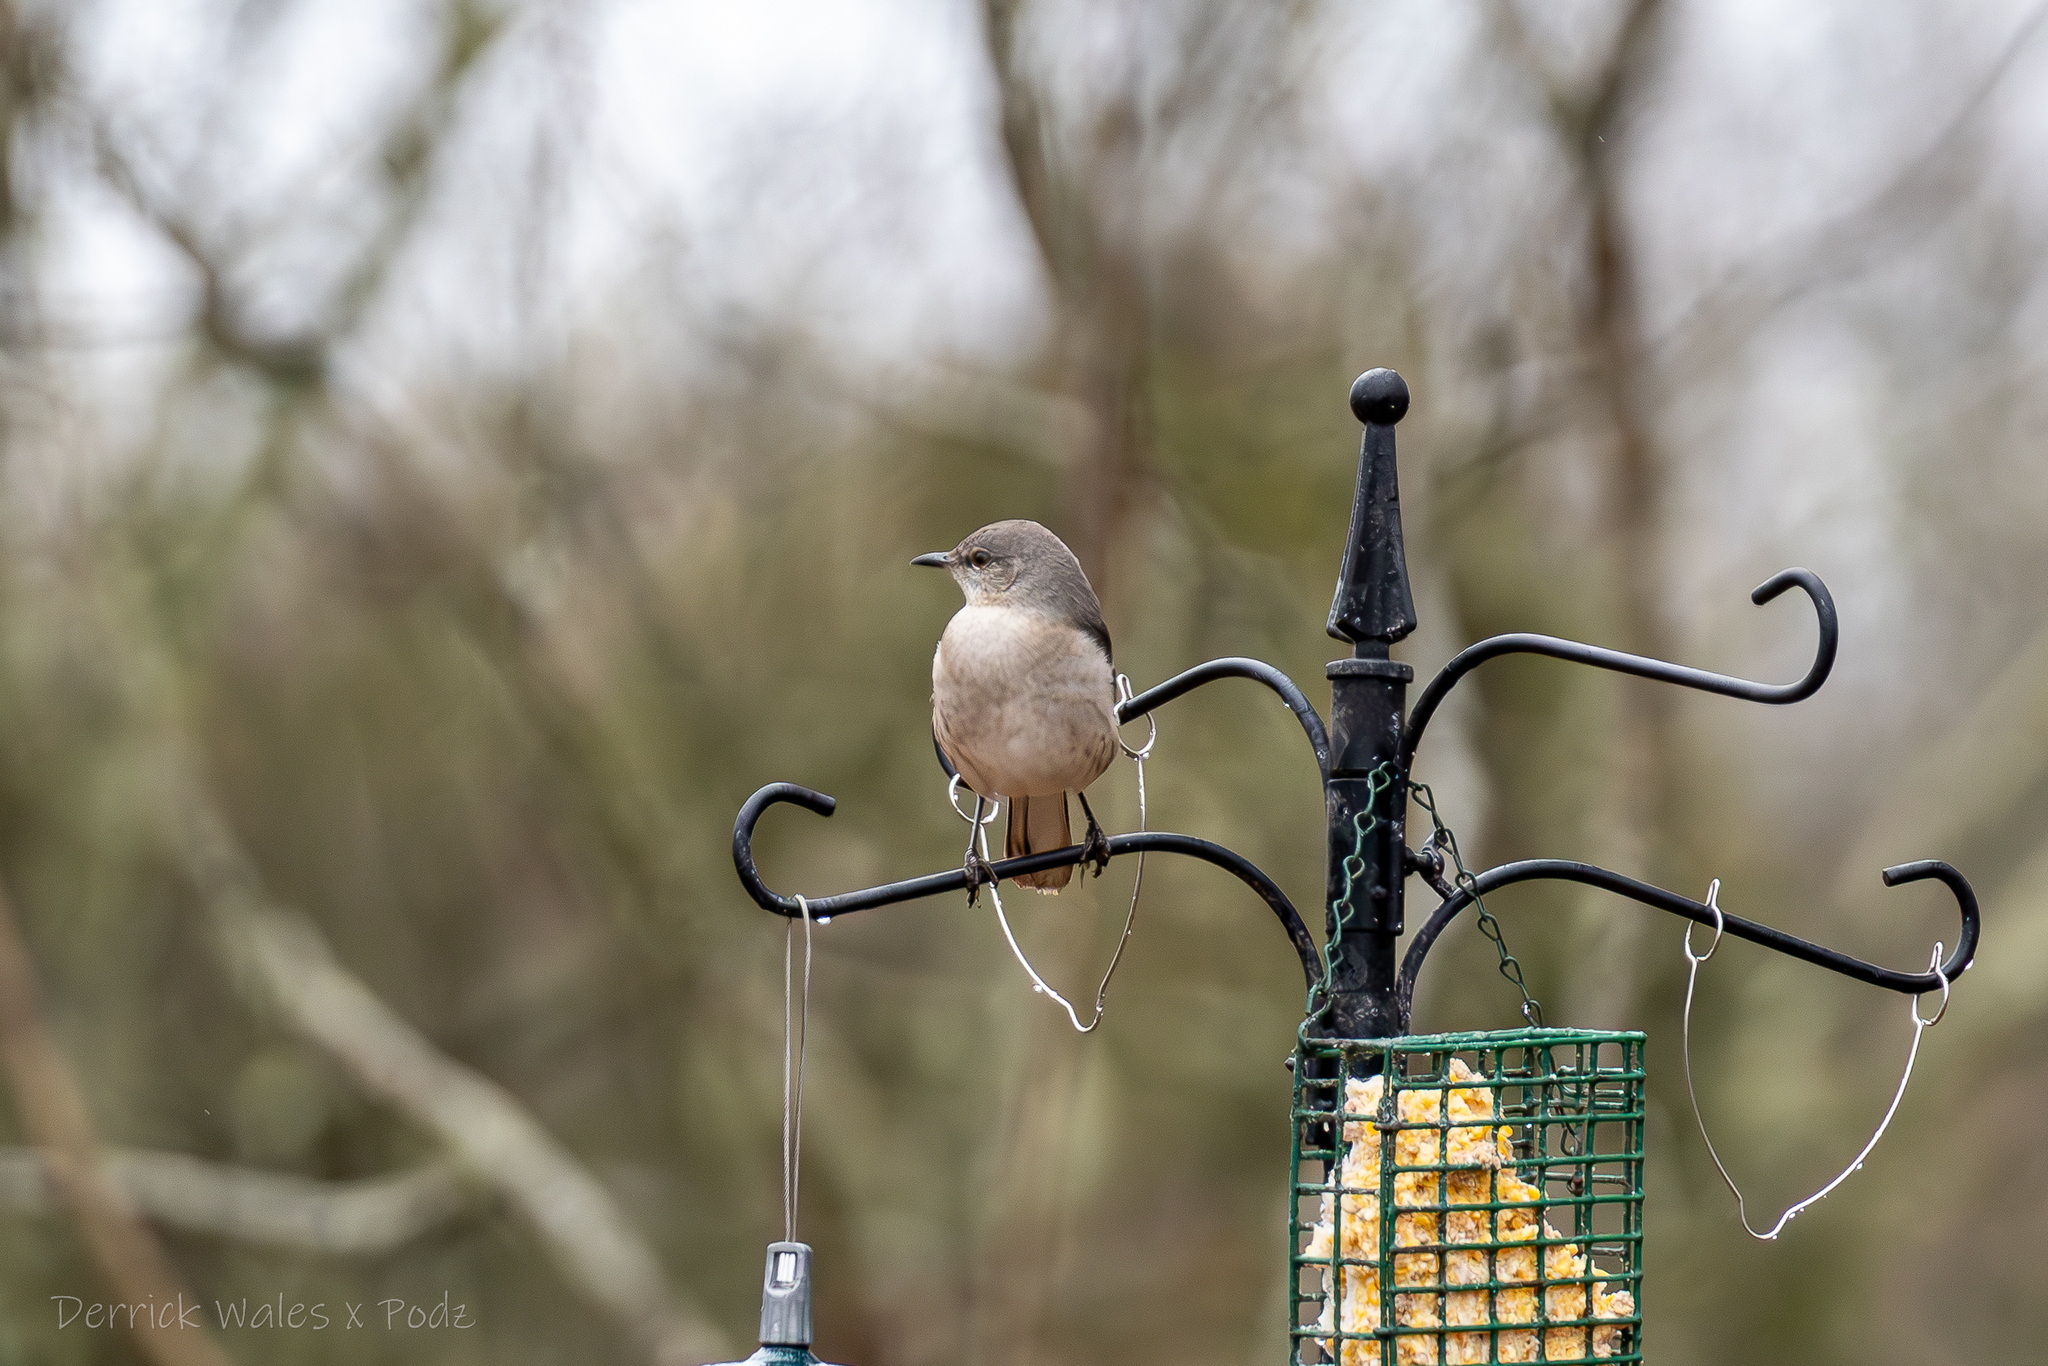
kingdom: Animalia
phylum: Chordata
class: Aves
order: Passeriformes
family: Mimidae
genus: Mimus
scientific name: Mimus polyglottos
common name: Northern mockingbird
